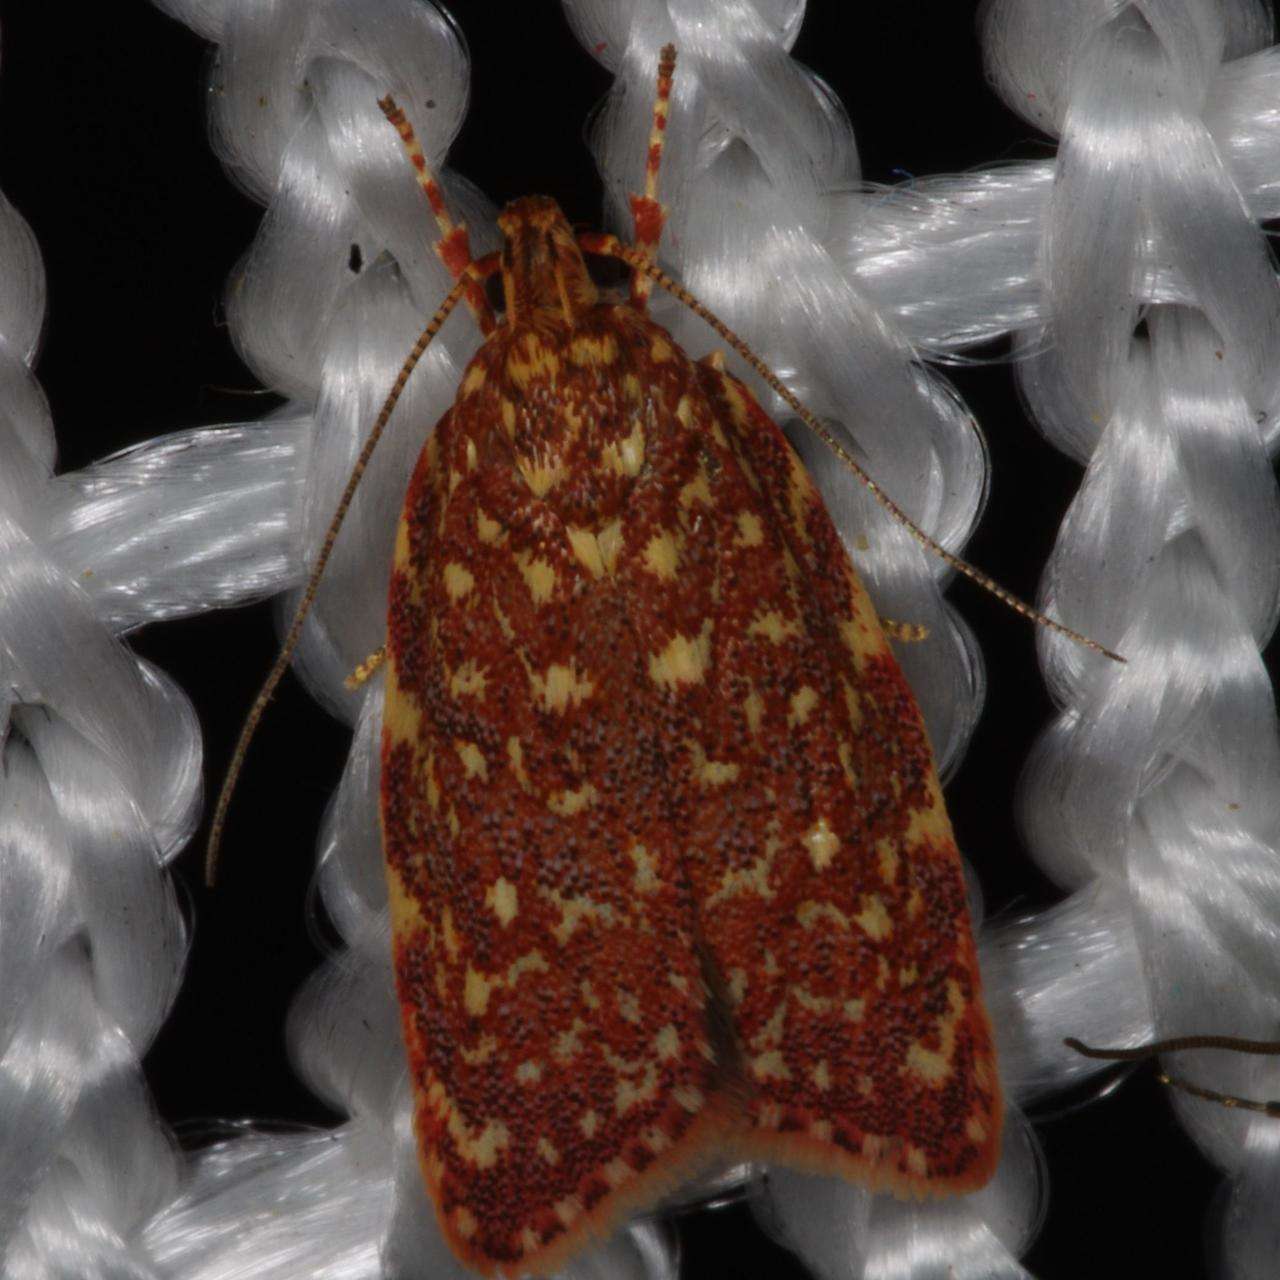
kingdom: Animalia
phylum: Arthropoda
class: Insecta
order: Lepidoptera
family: Oecophoridae
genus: Syringoseca
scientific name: Syringoseca rhodoxantha
